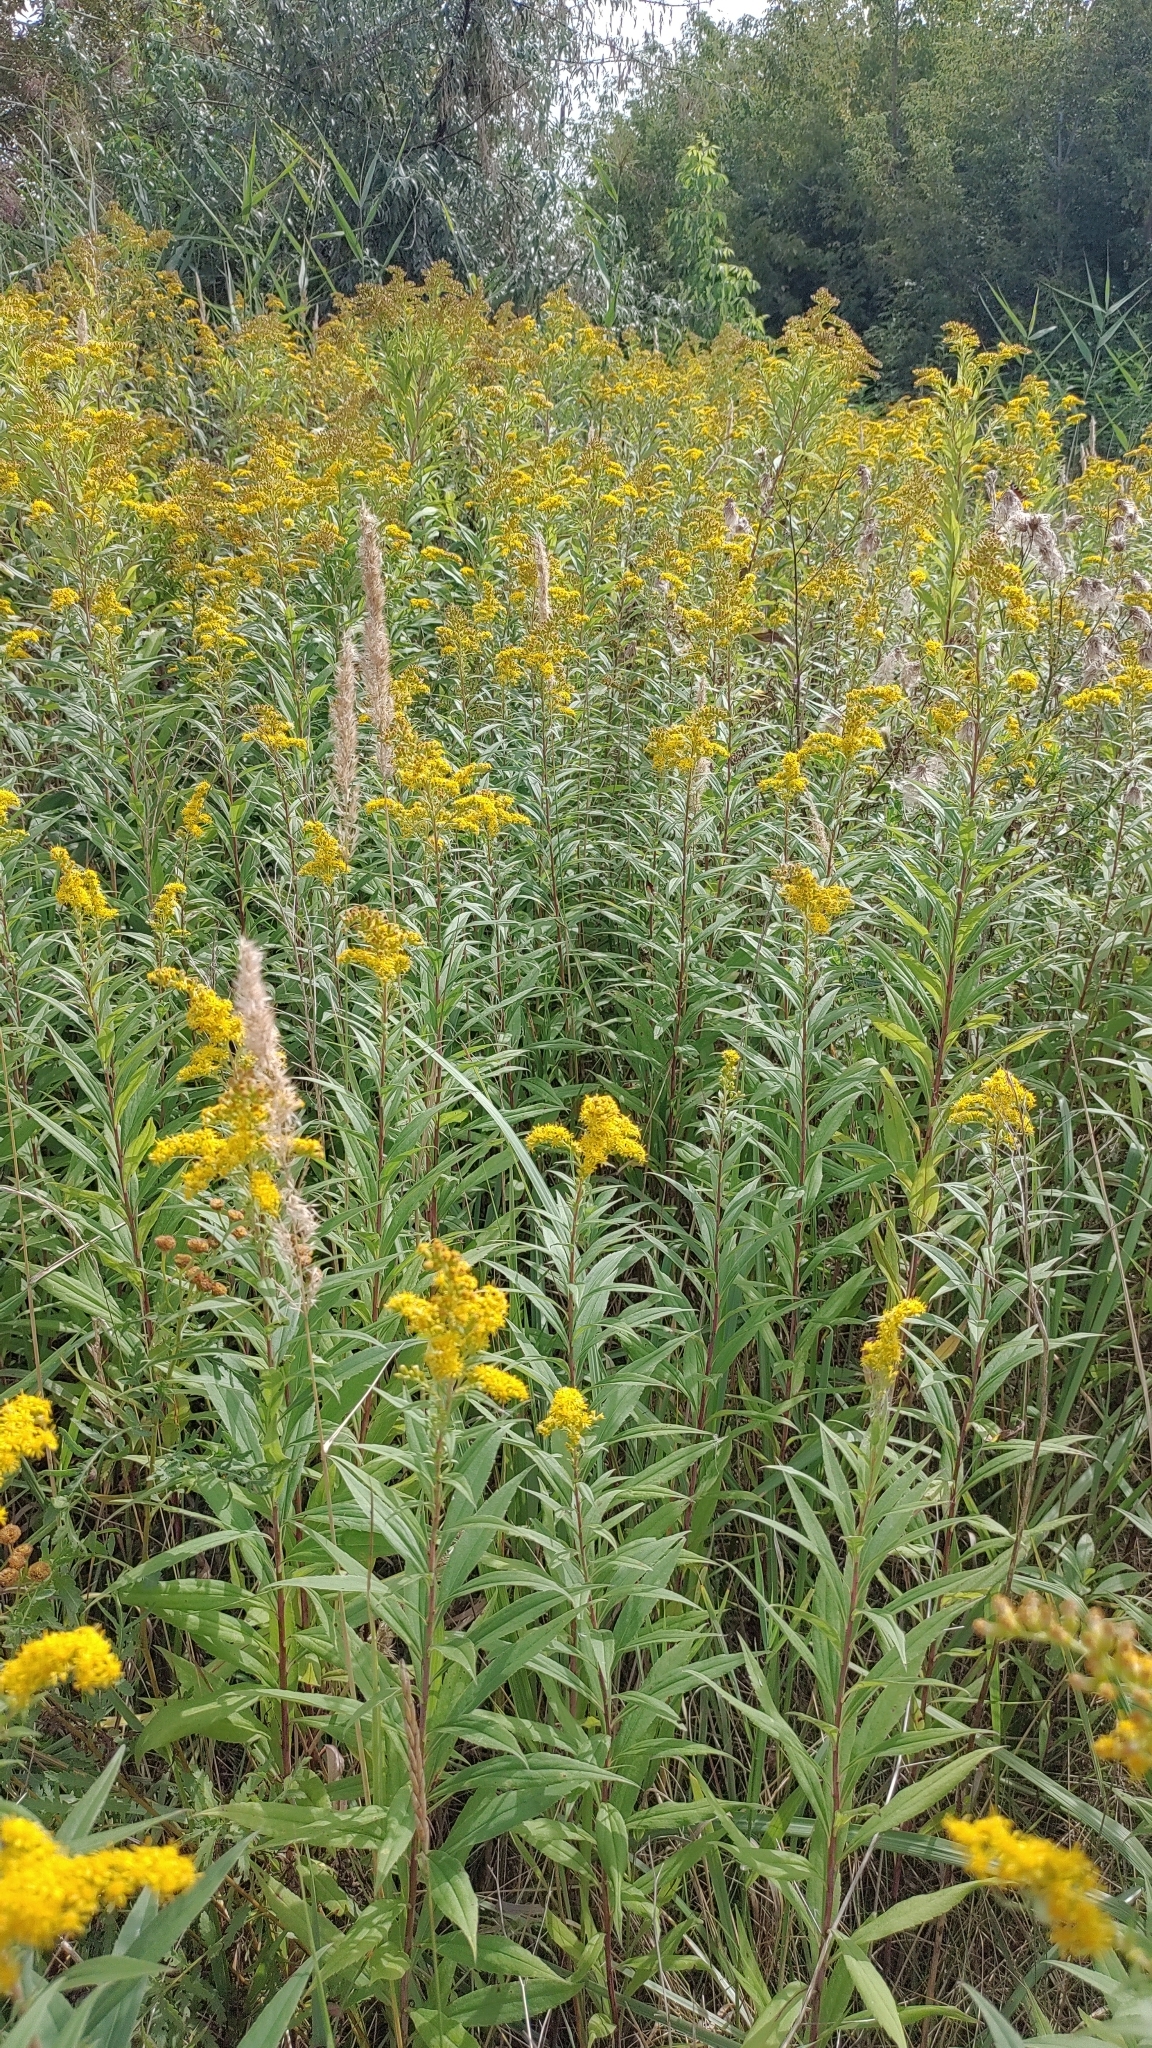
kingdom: Plantae
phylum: Tracheophyta
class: Magnoliopsida
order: Asterales
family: Asteraceae
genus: Solidago
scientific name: Solidago canadensis
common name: Canada goldenrod
